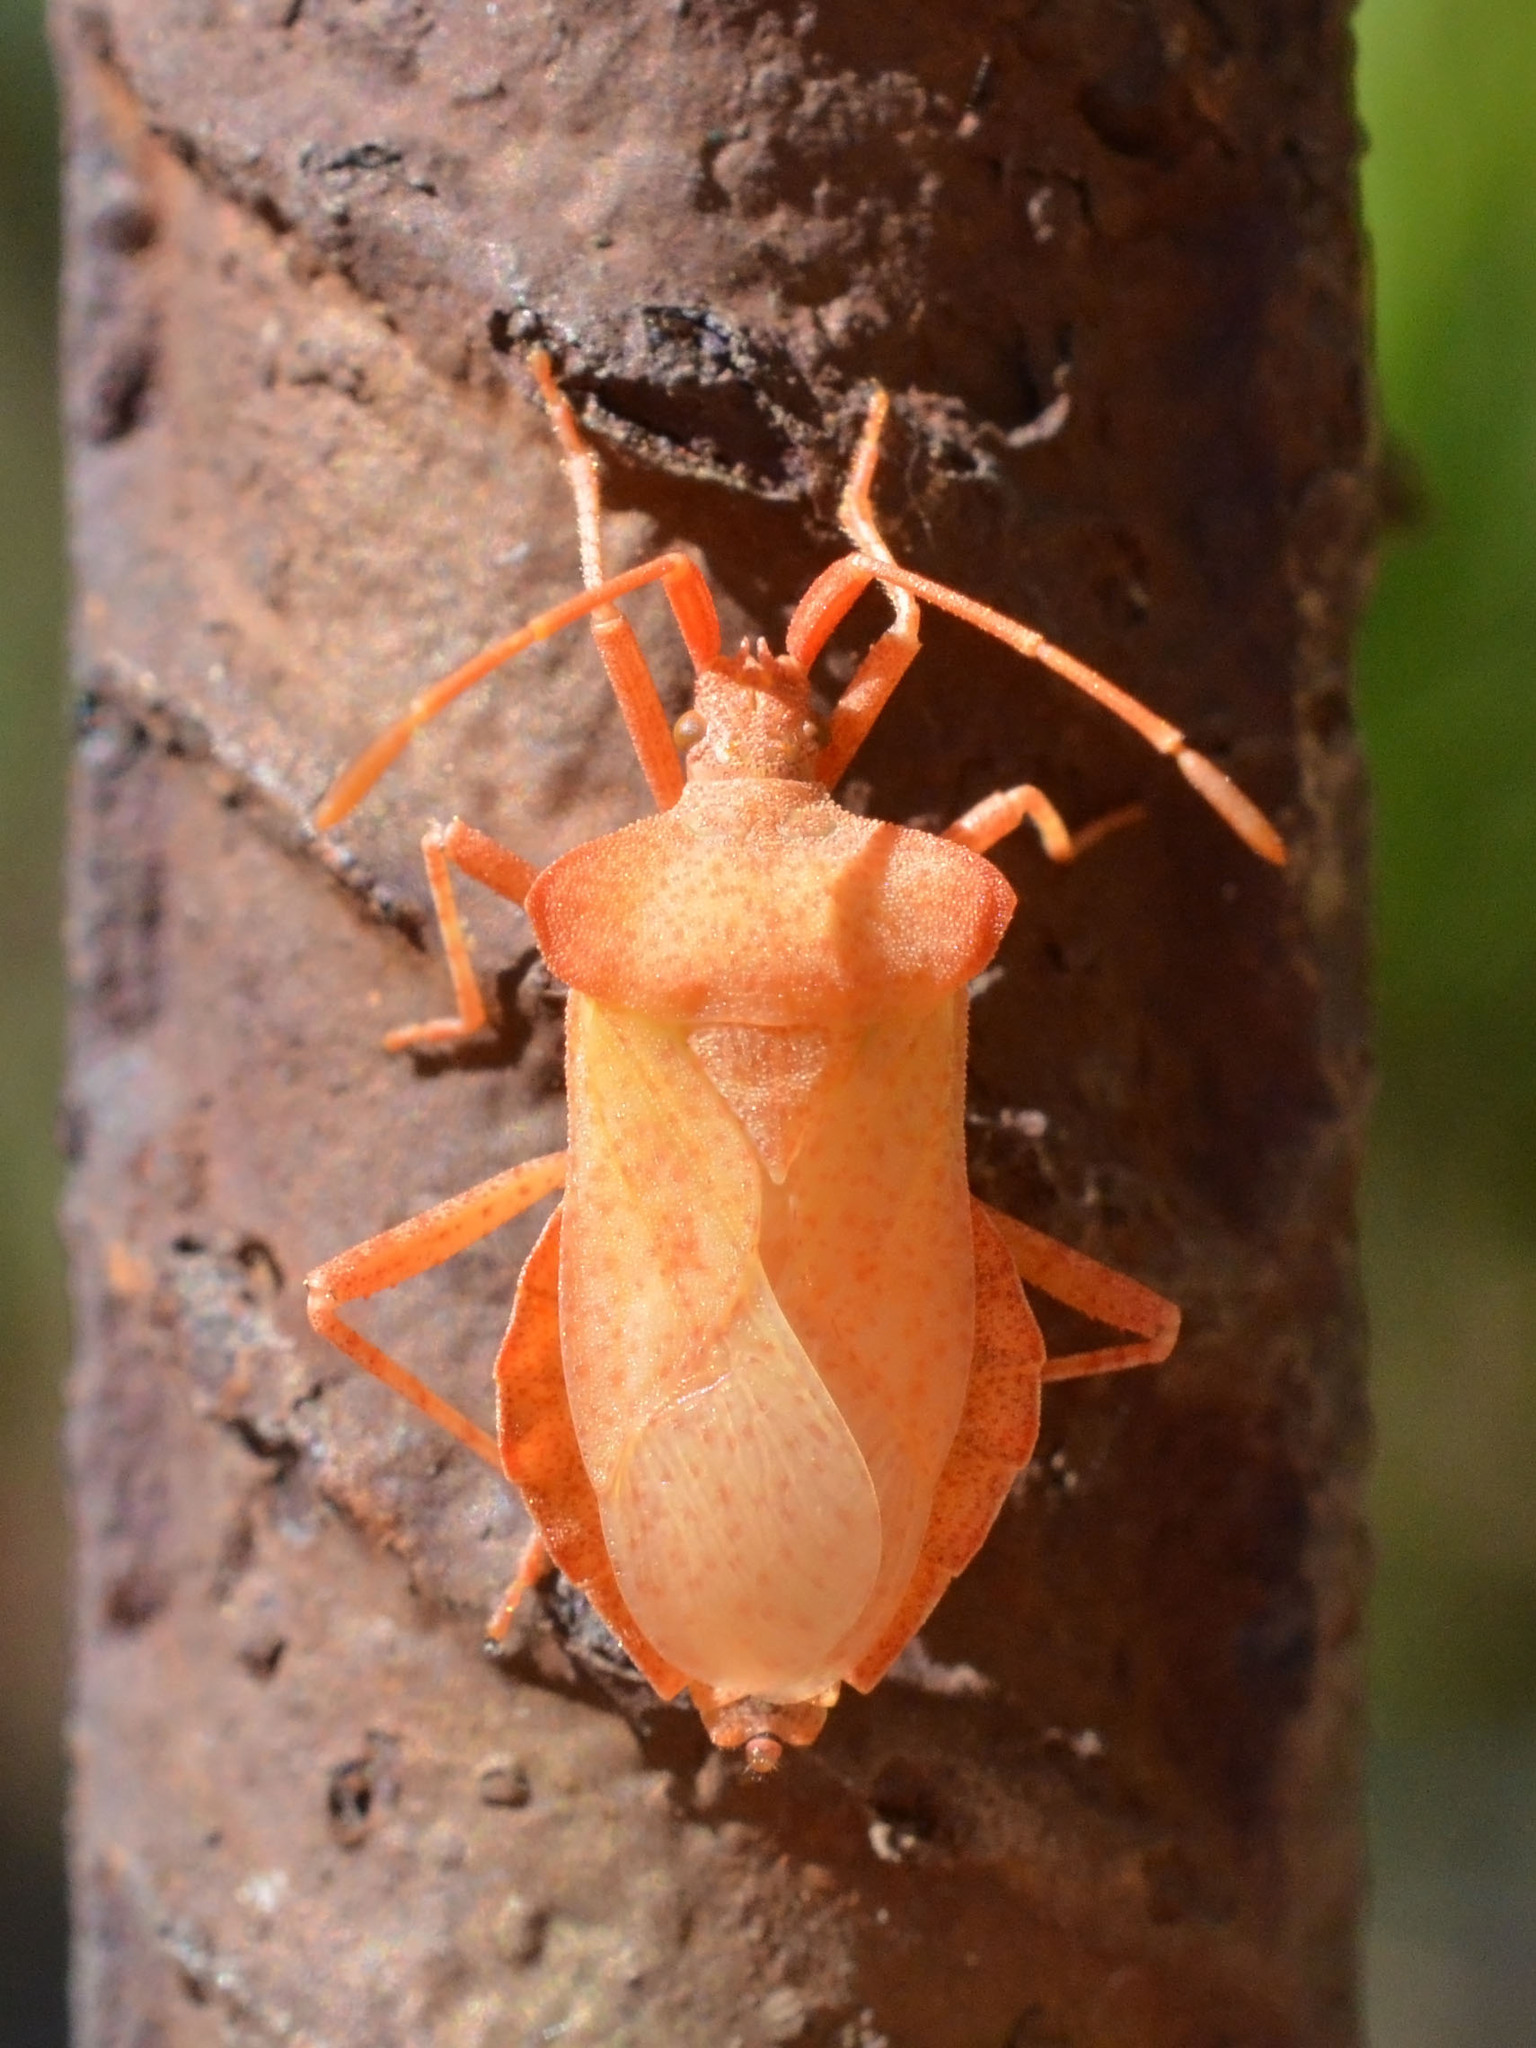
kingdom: Animalia
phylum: Arthropoda
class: Insecta
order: Hemiptera
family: Coreidae
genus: Coreus
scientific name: Coreus marginatus
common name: Dock bug
